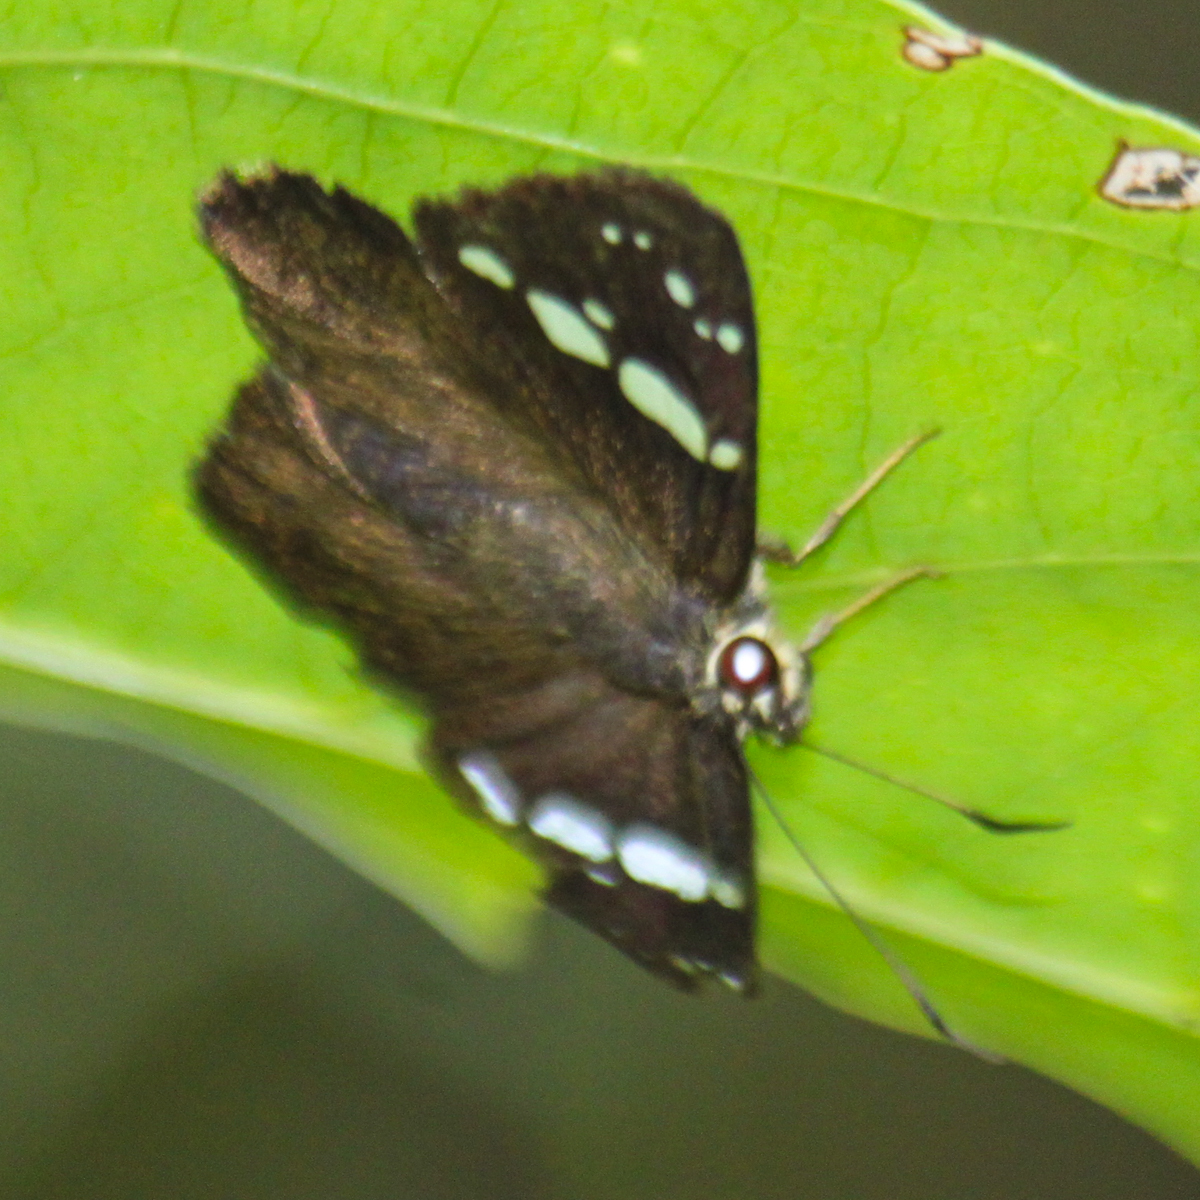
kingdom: Animalia
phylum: Arthropoda
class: Insecta
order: Lepidoptera
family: Hesperiidae
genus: Chamunda
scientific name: Chamunda chamunda
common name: Crescent spotted flat
